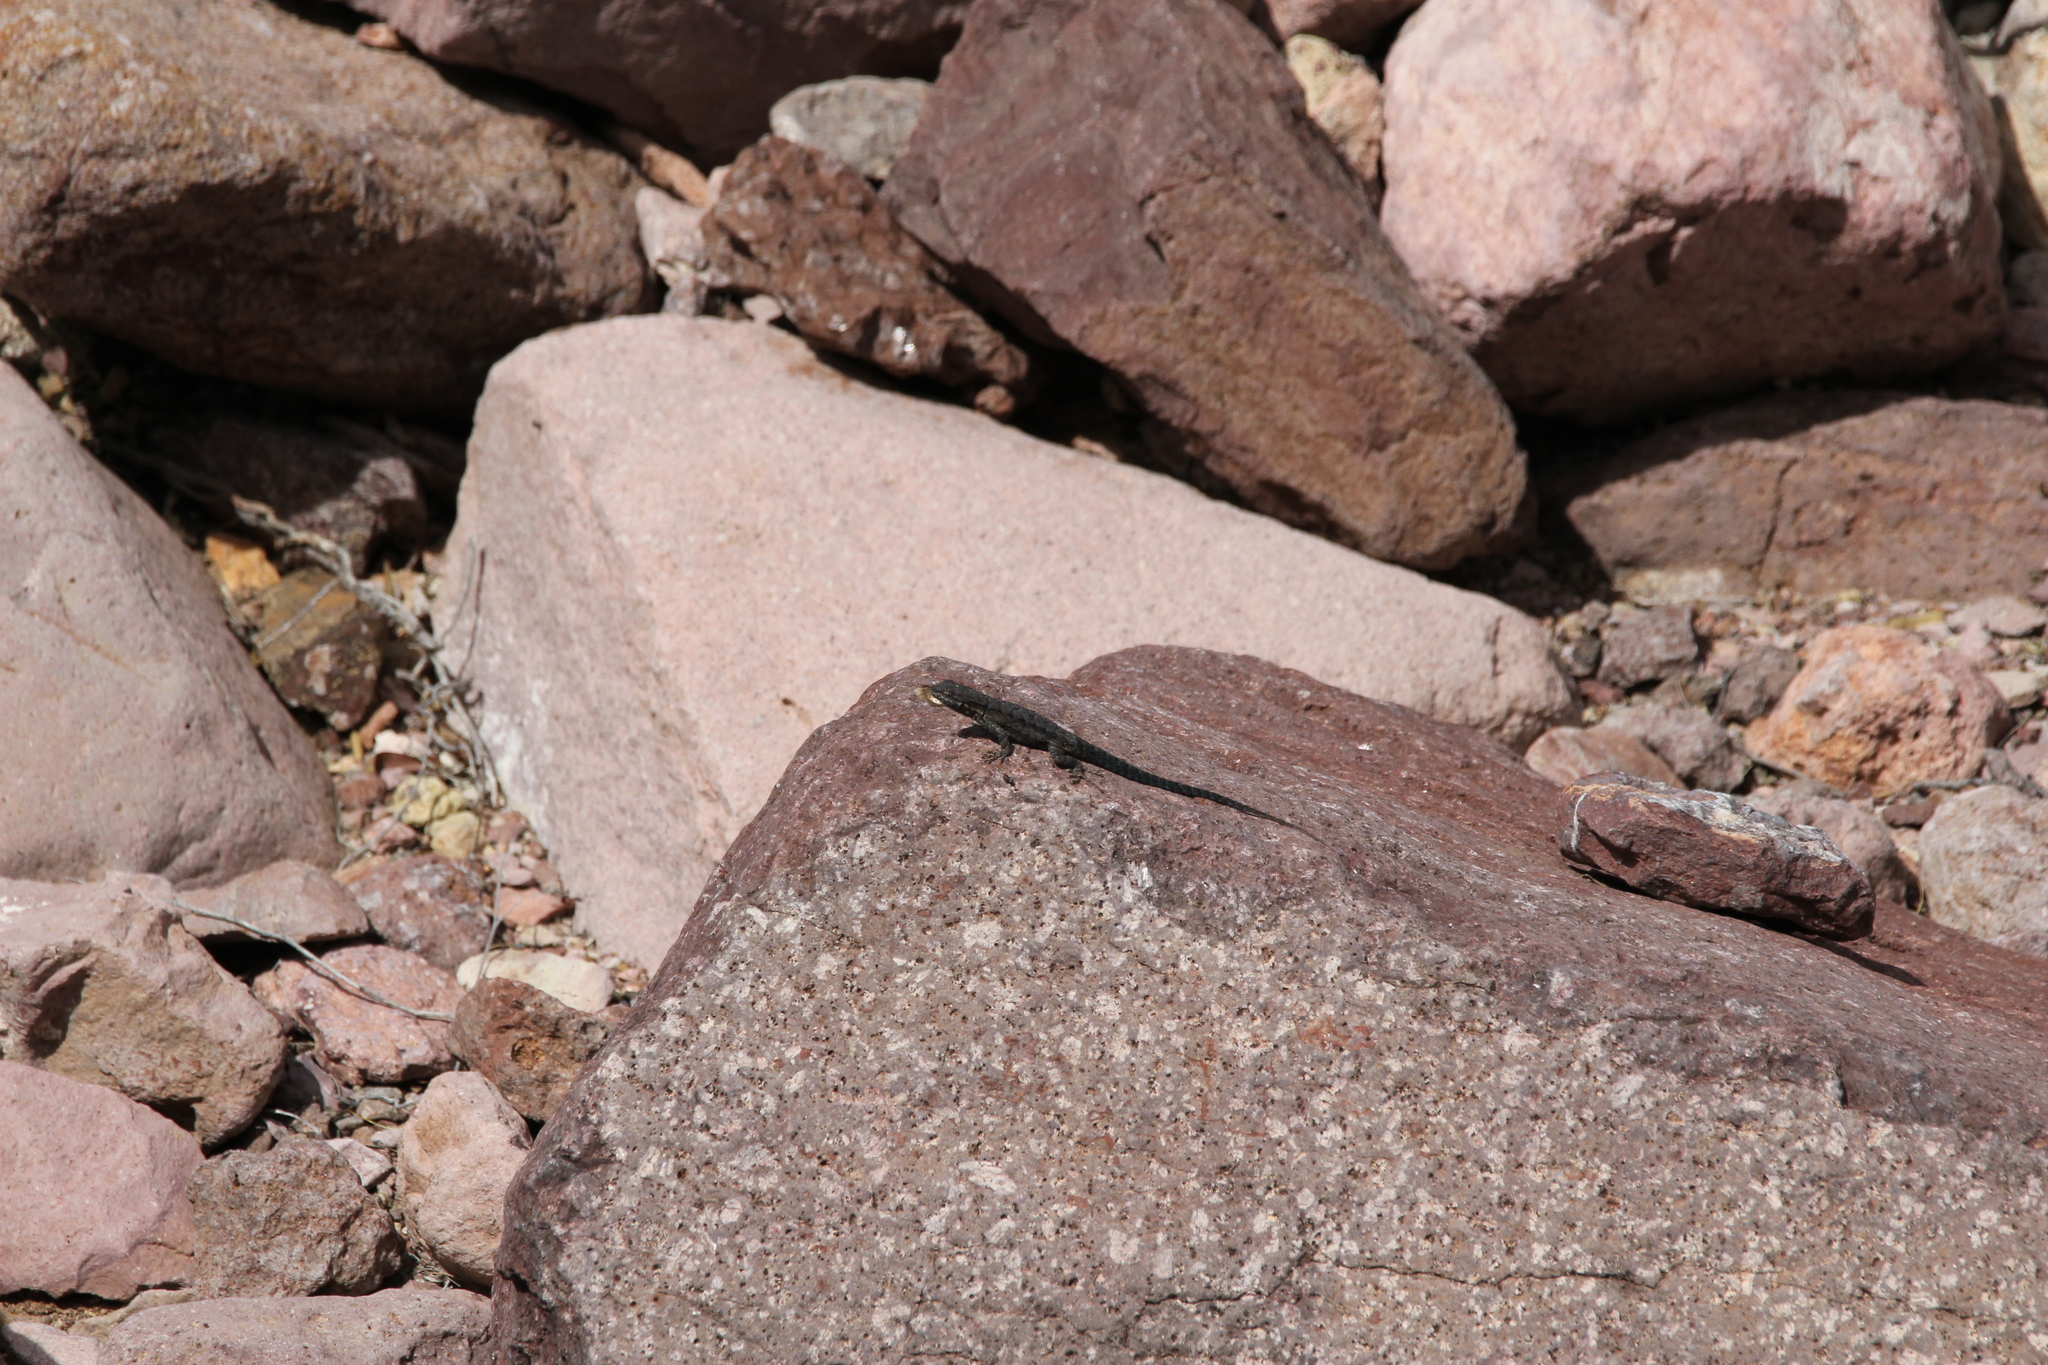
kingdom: Animalia
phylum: Chordata
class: Squamata
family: Phrynosomatidae
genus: Urosaurus
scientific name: Urosaurus ornatus
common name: Ornate tree lizard
